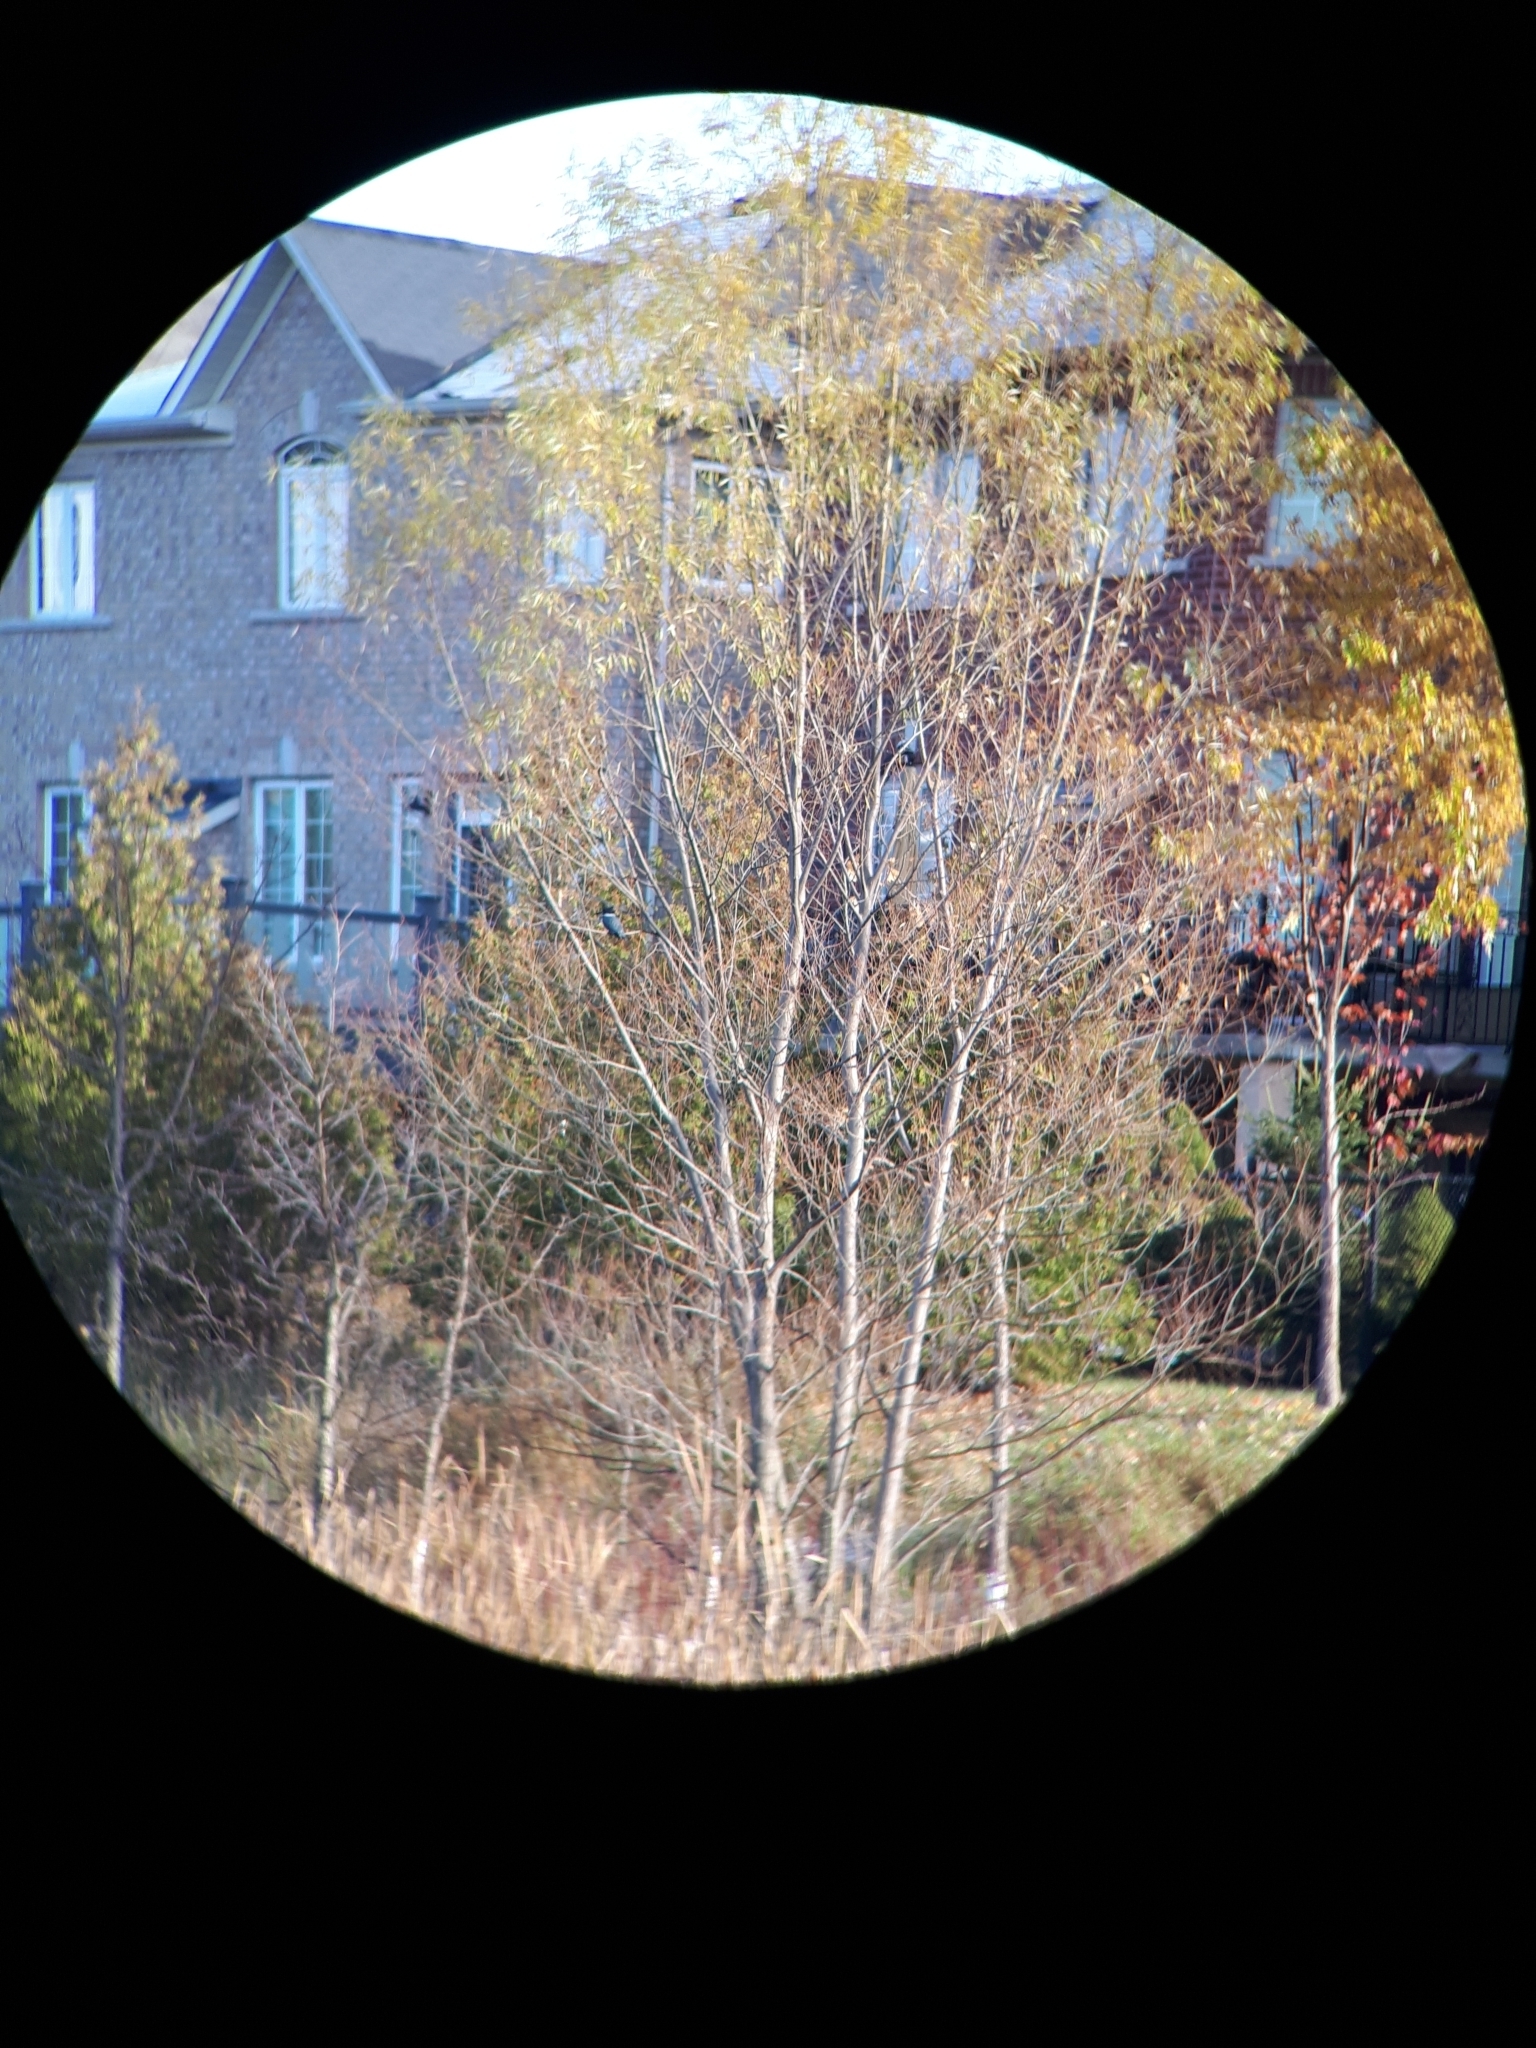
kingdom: Animalia
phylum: Chordata
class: Aves
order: Coraciiformes
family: Alcedinidae
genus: Megaceryle
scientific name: Megaceryle alcyon
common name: Belted kingfisher
